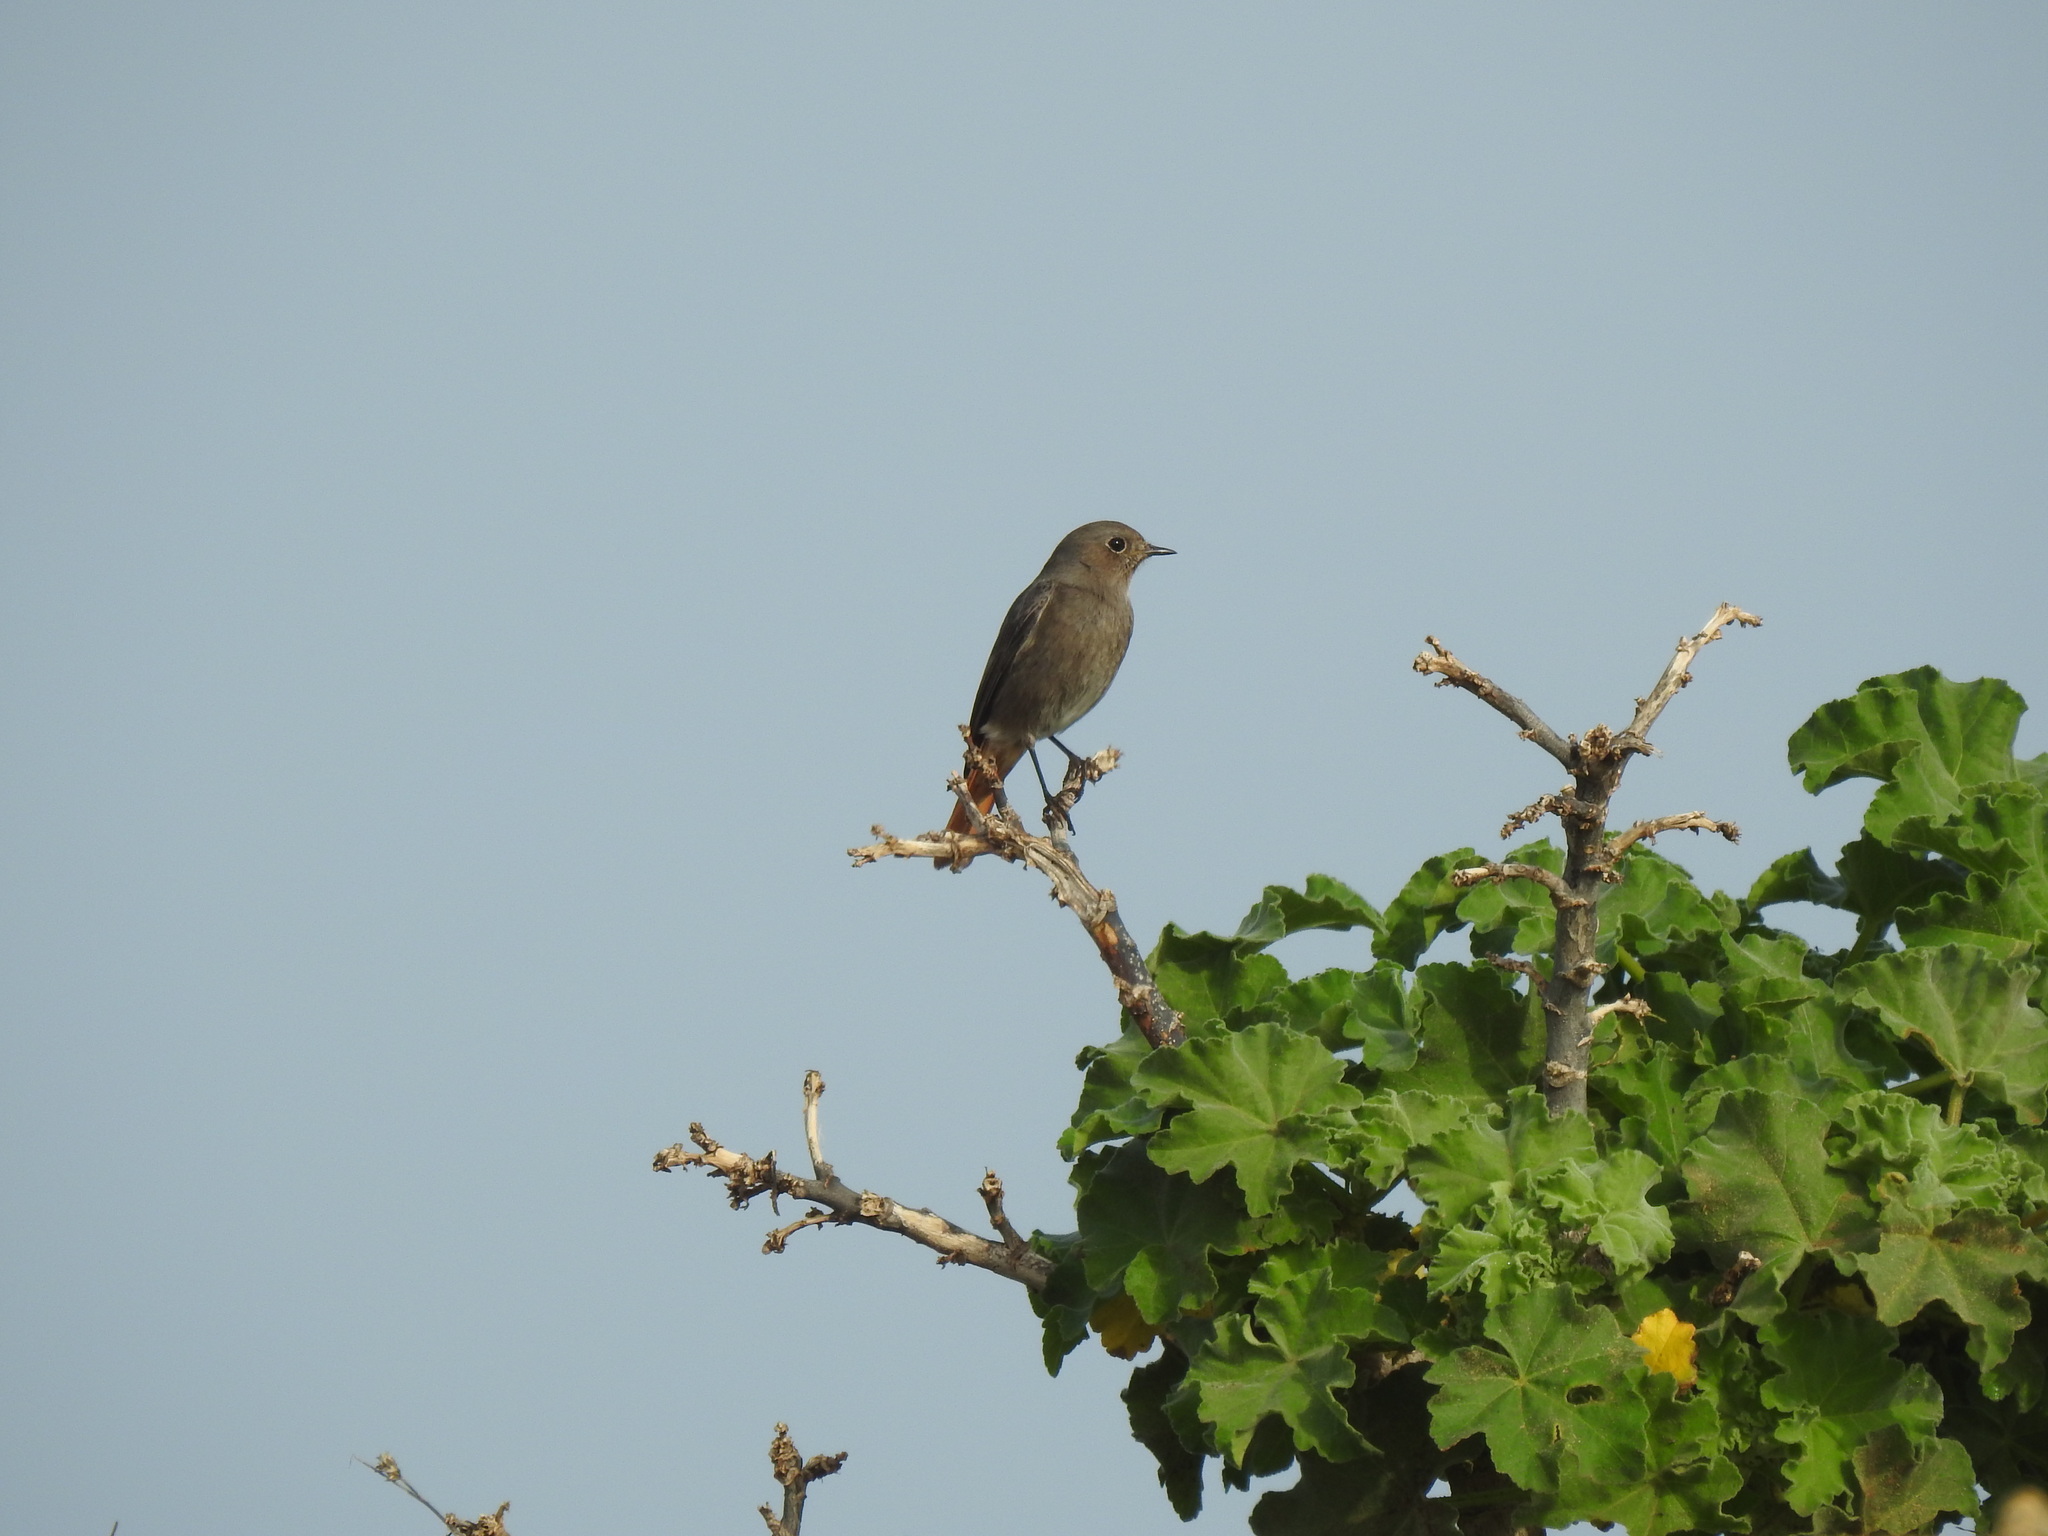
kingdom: Animalia
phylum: Chordata
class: Aves
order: Passeriformes
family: Muscicapidae
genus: Phoenicurus
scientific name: Phoenicurus ochruros
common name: Black redstart
